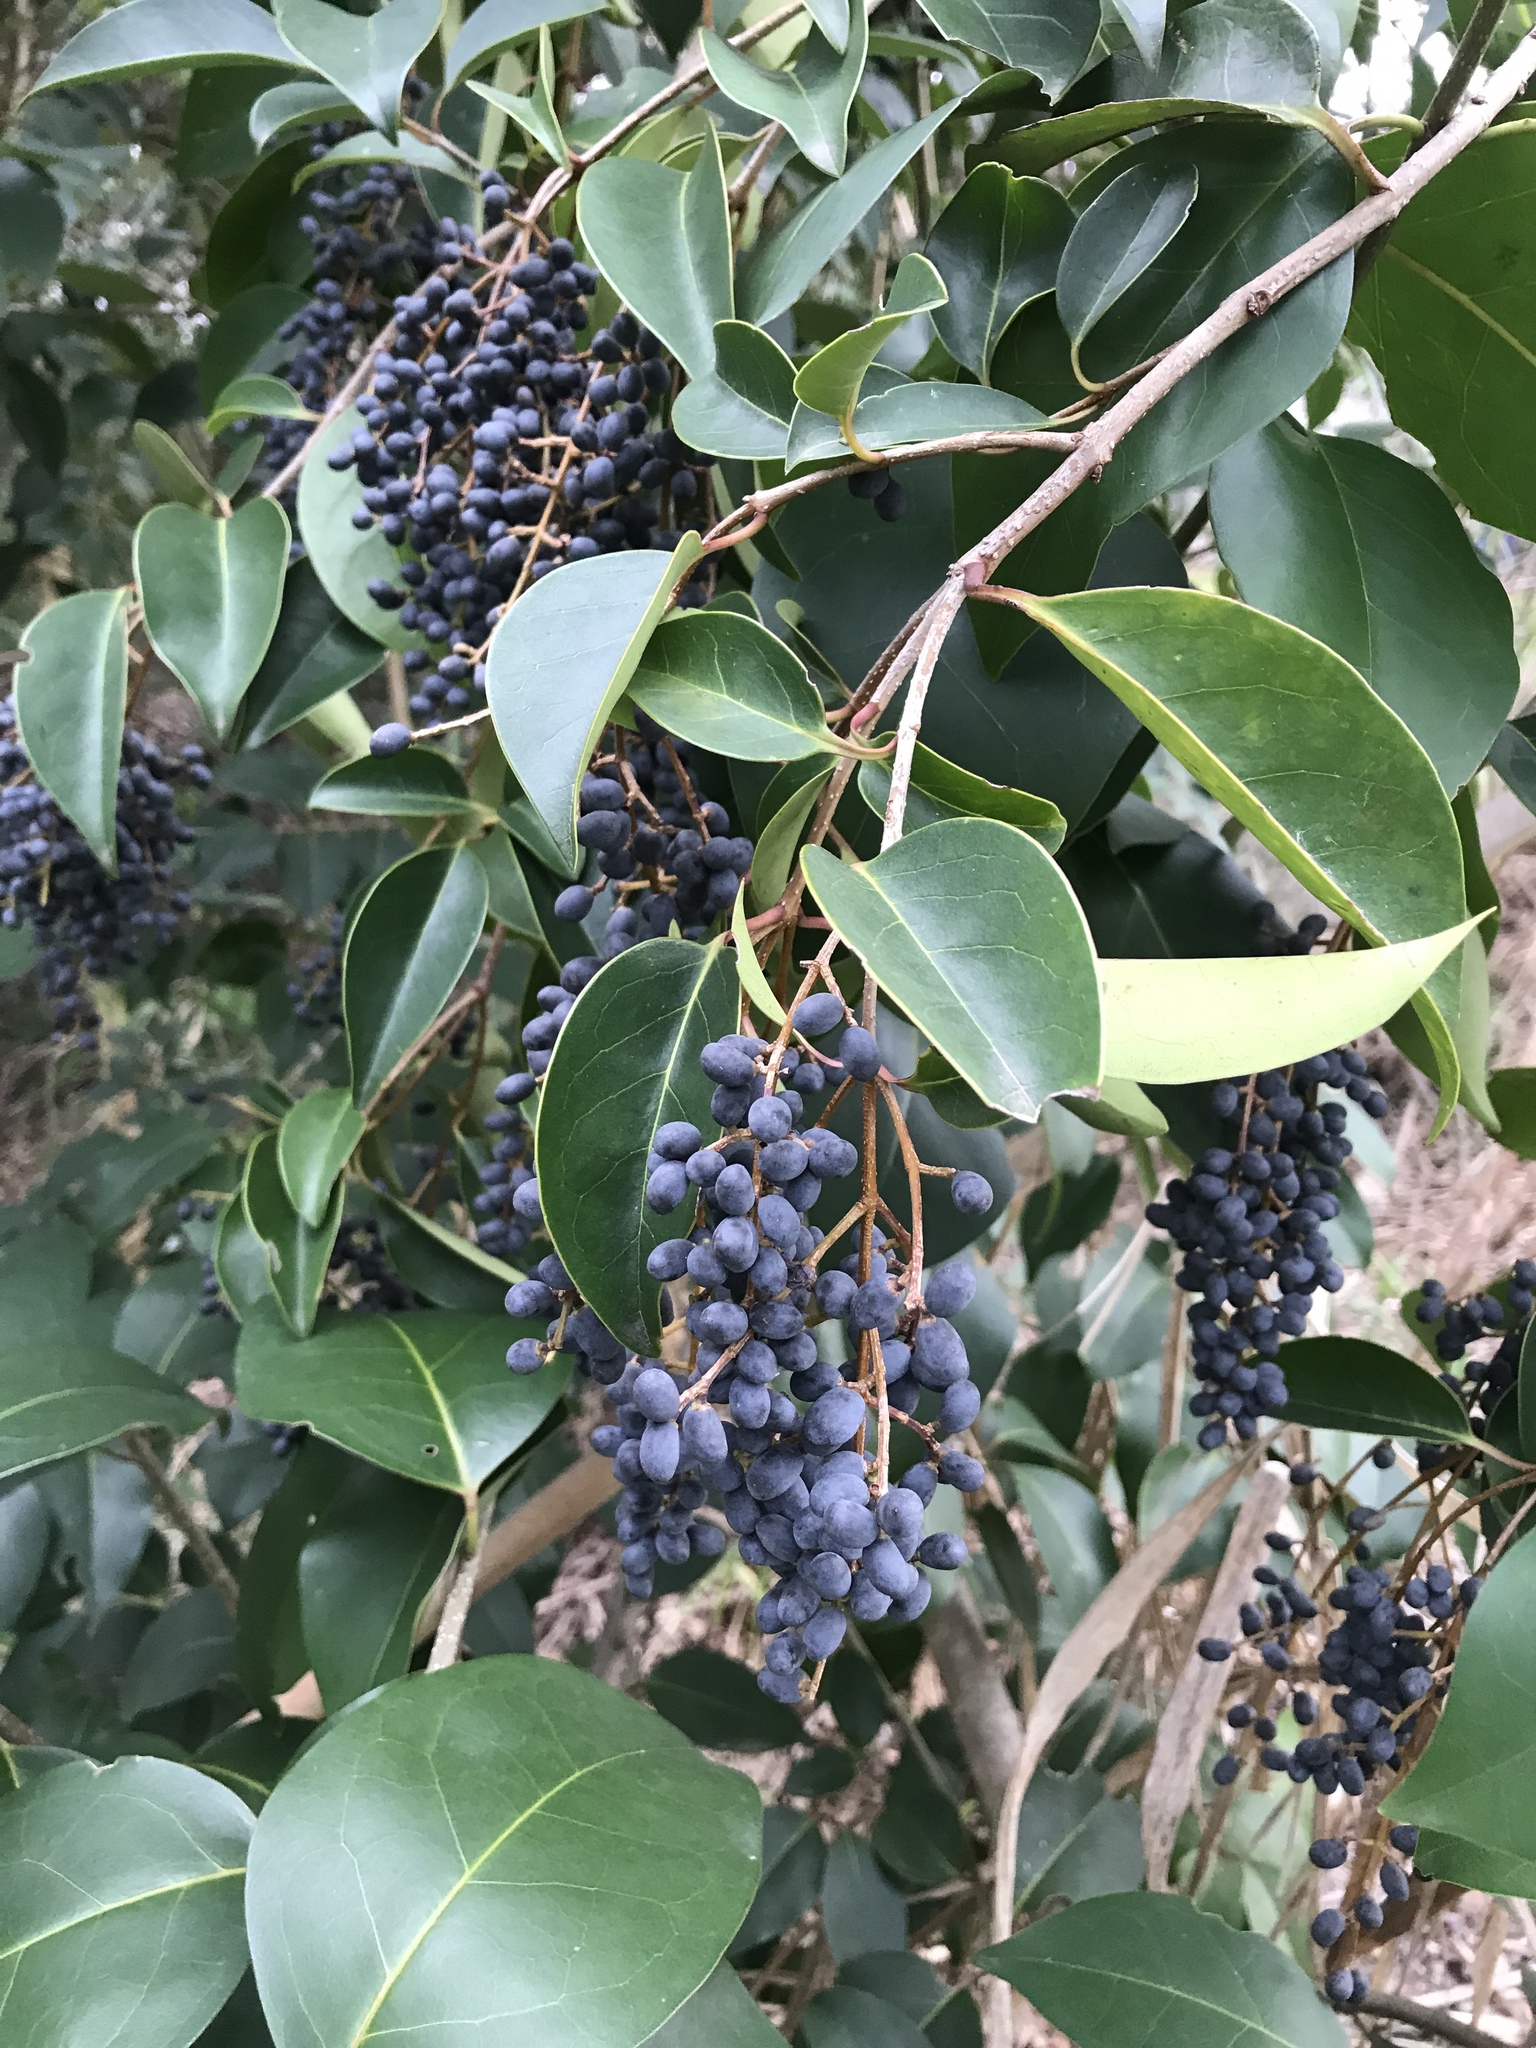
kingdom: Plantae
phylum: Tracheophyta
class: Magnoliopsida
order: Lamiales
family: Oleaceae
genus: Ligustrum
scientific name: Ligustrum lucidum
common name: Glossy privet
